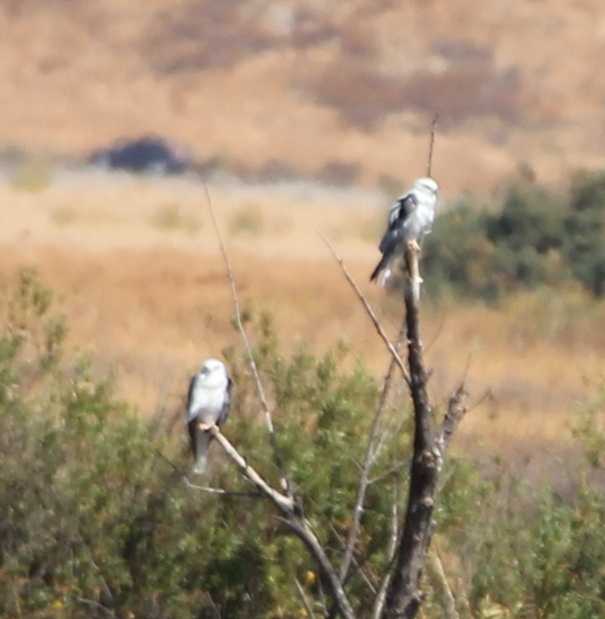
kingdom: Animalia
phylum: Chordata
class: Aves
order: Accipitriformes
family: Accipitridae
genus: Elanus
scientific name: Elanus leucurus
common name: White-tailed kite
